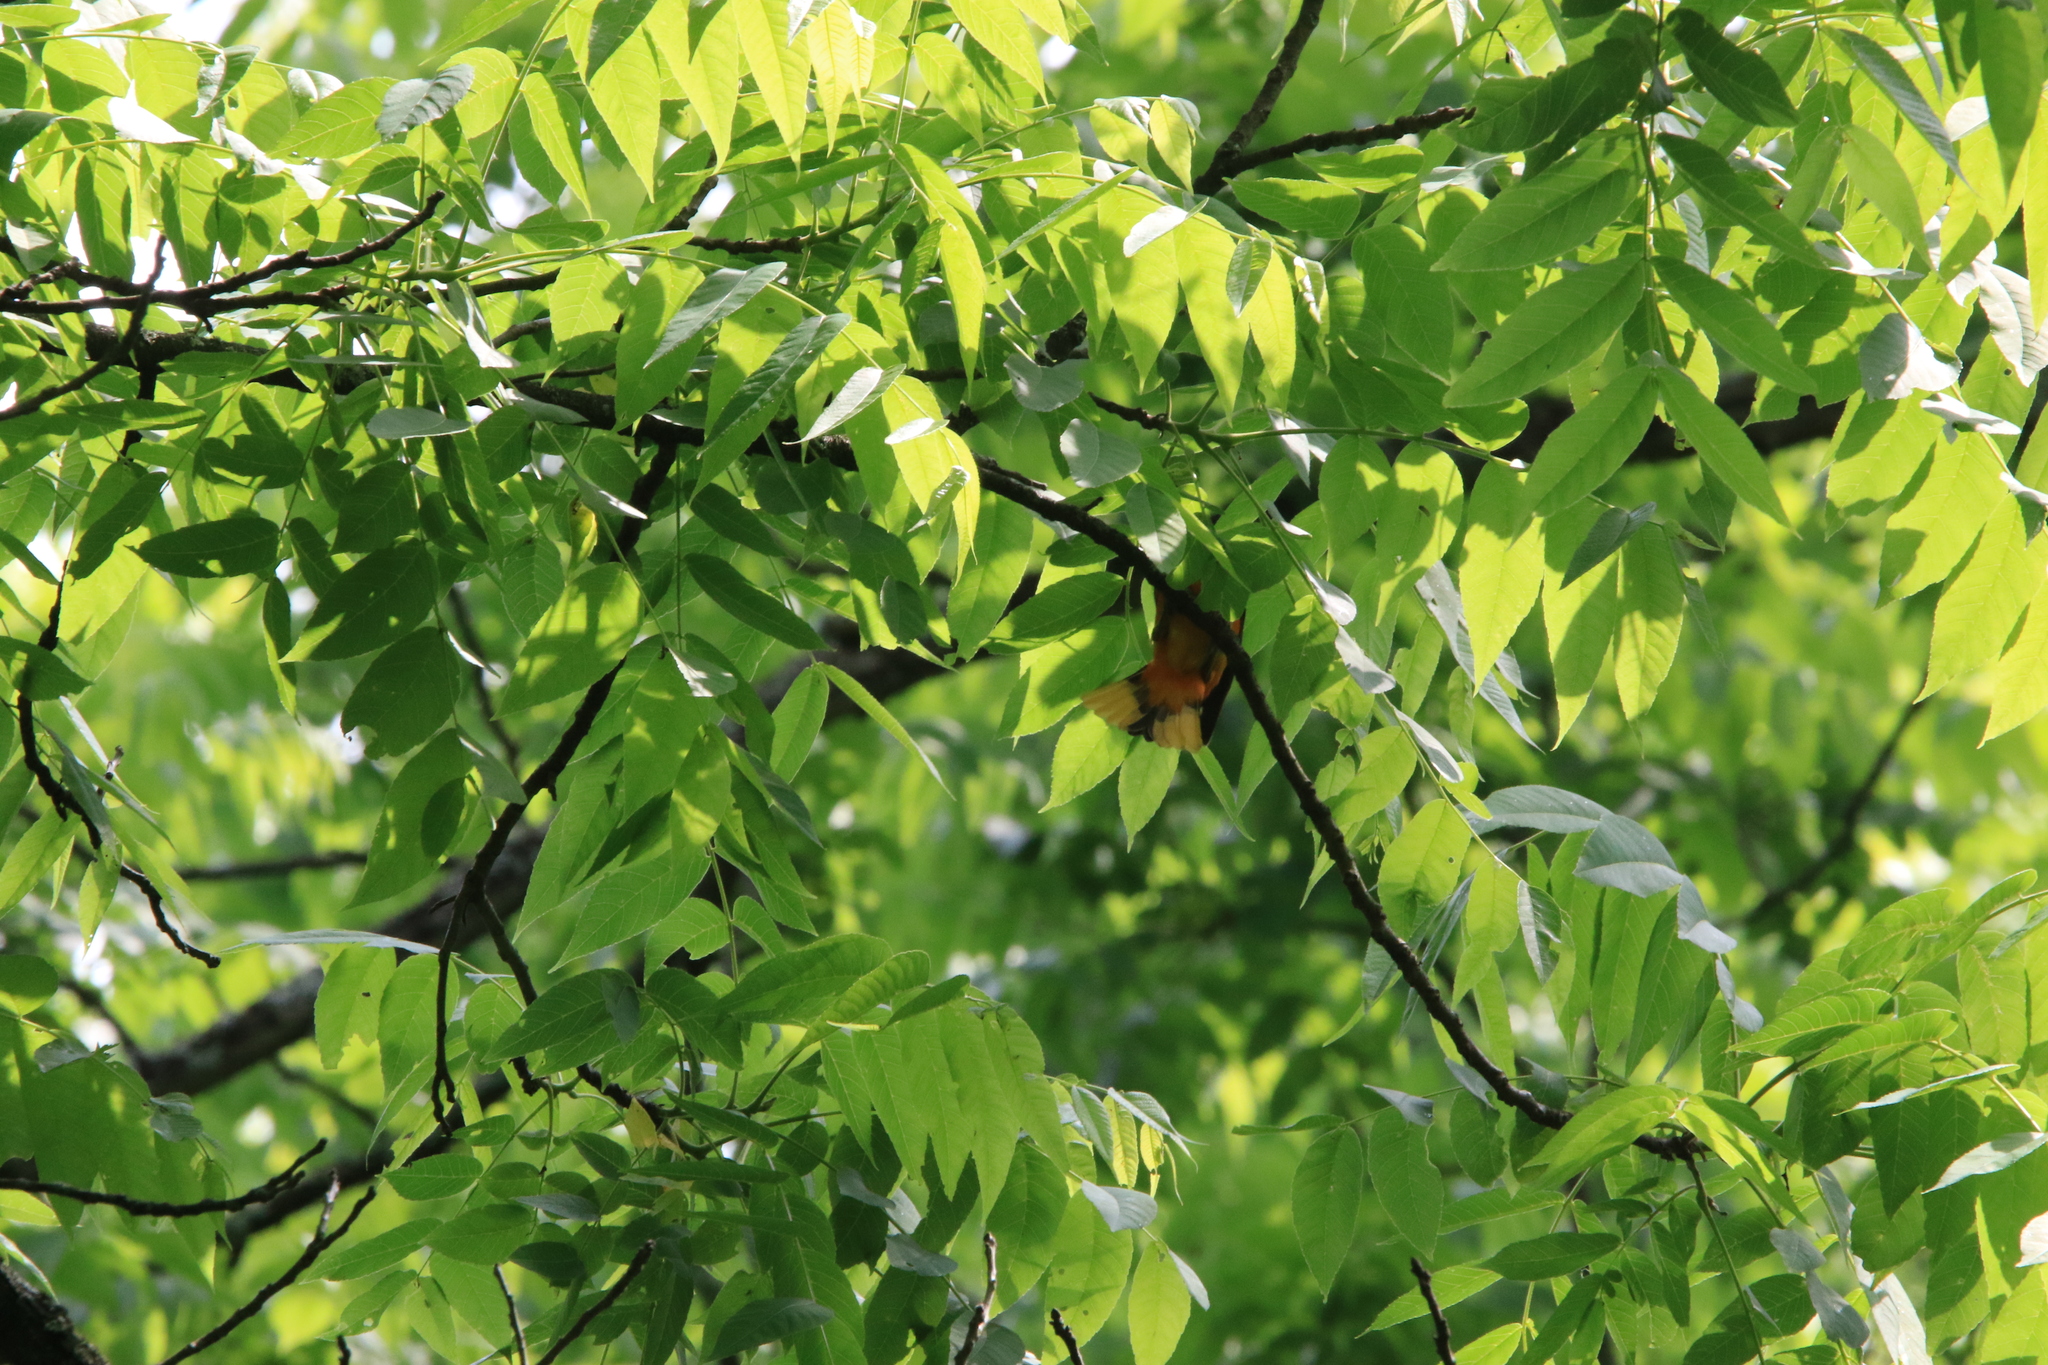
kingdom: Animalia
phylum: Chordata
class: Aves
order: Passeriformes
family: Icteridae
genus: Icterus
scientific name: Icterus galbula
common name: Baltimore oriole
